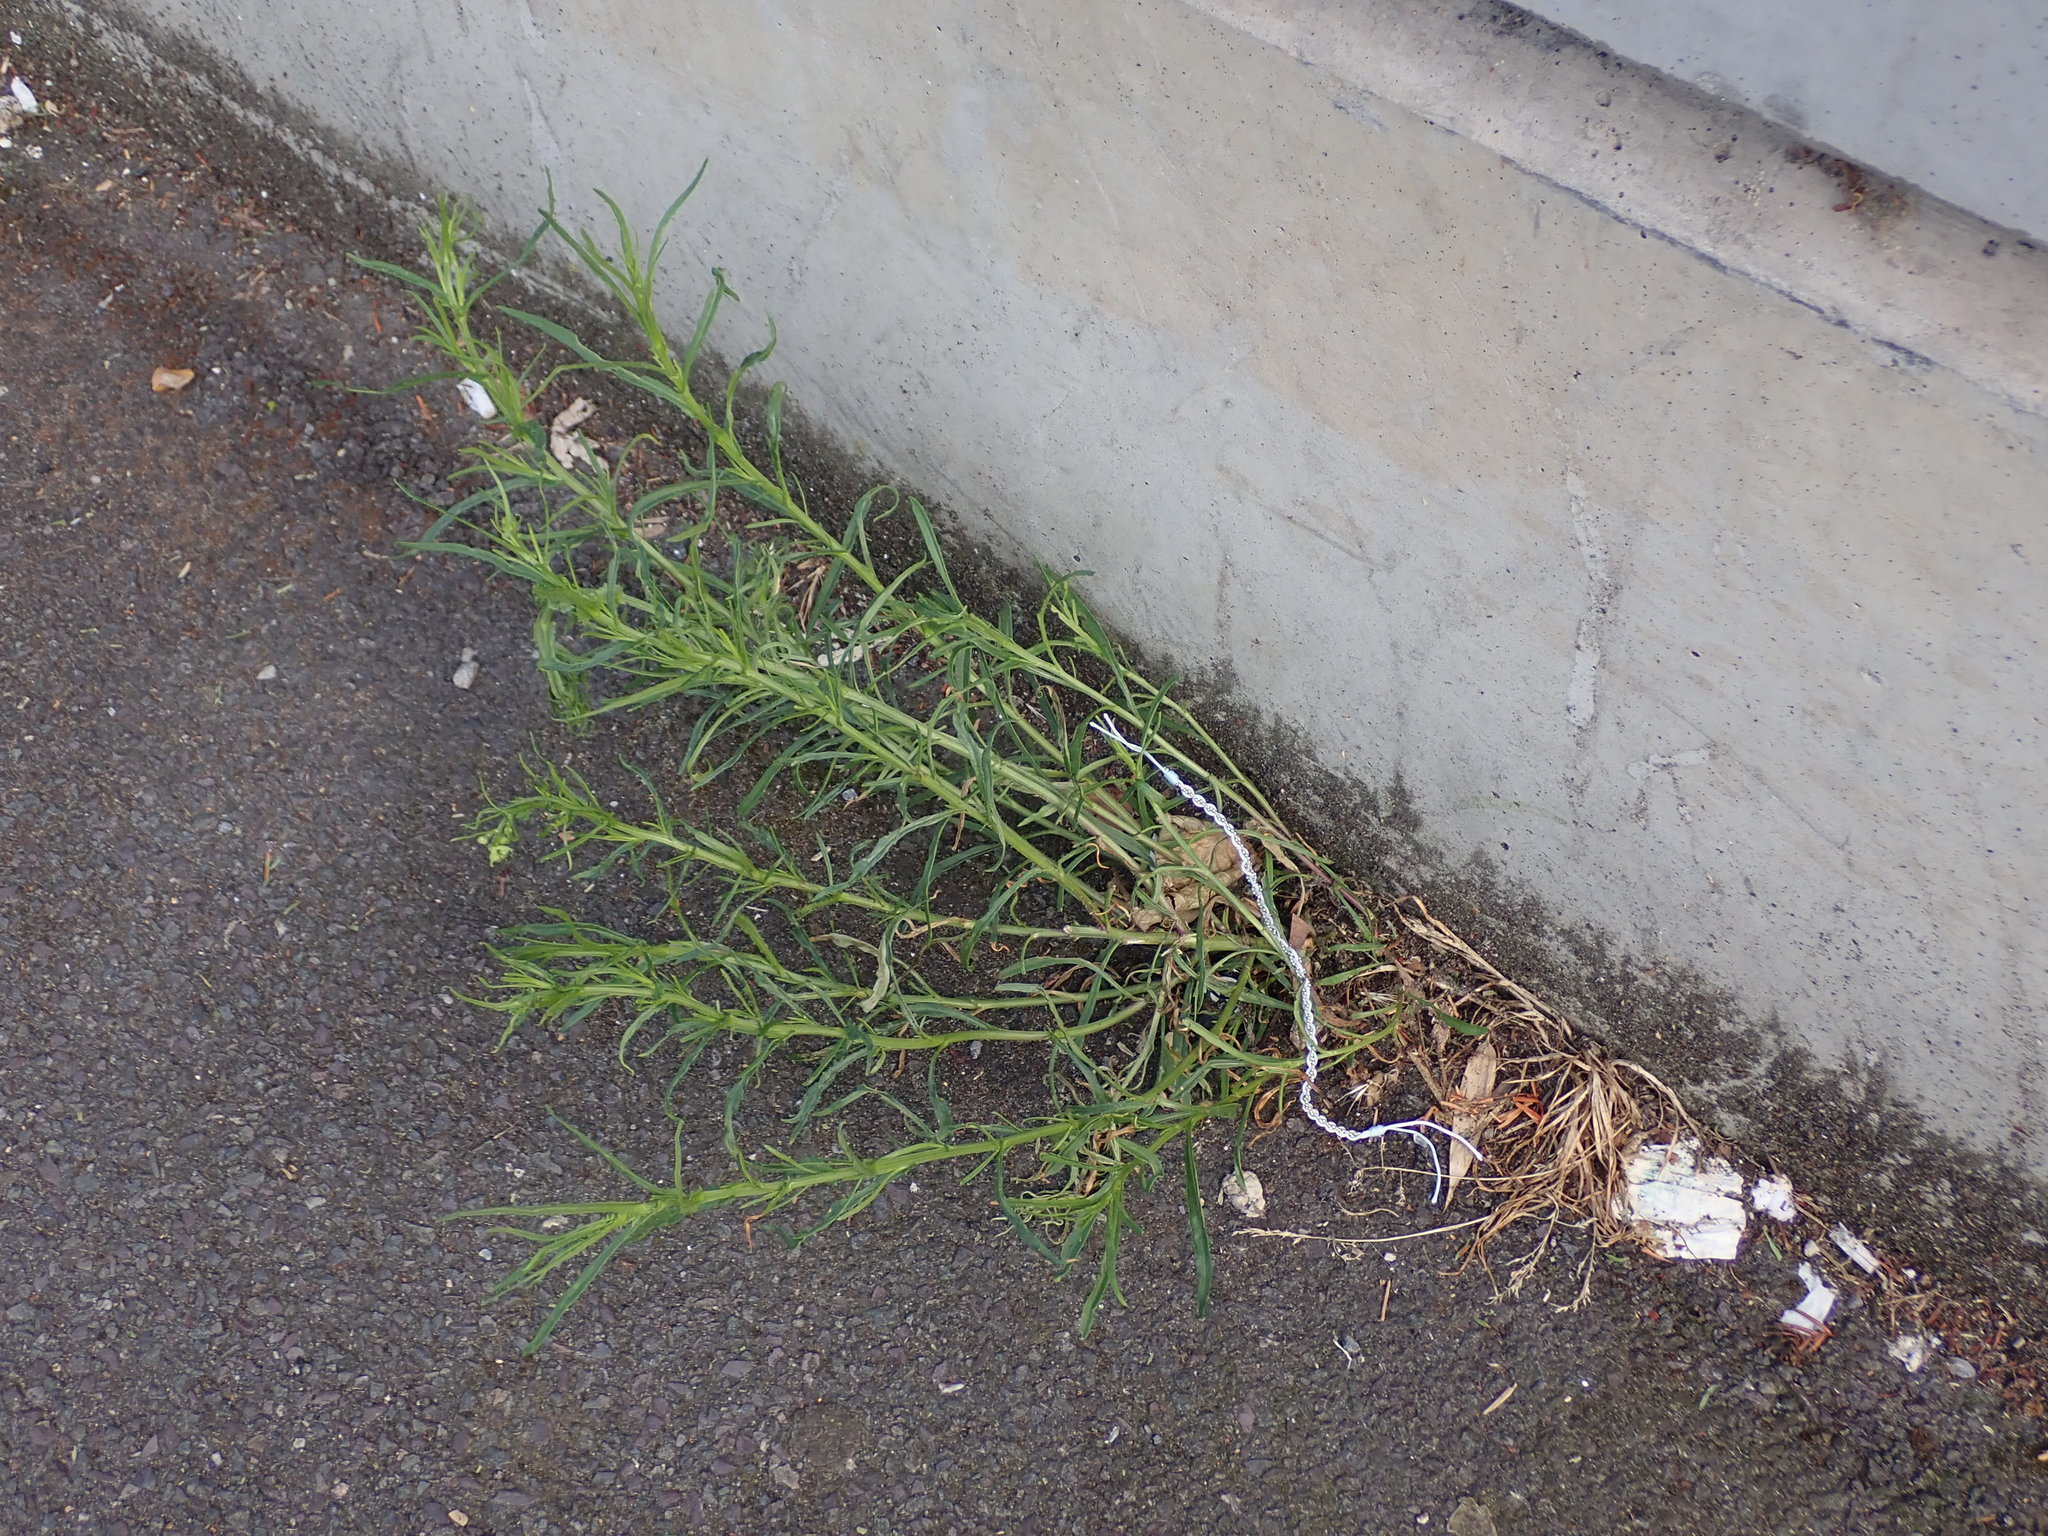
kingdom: Plantae
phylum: Tracheophyta
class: Magnoliopsida
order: Asterales
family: Asteraceae
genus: Senecio
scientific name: Senecio inaequidens
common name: Narrow-leaved ragwort
